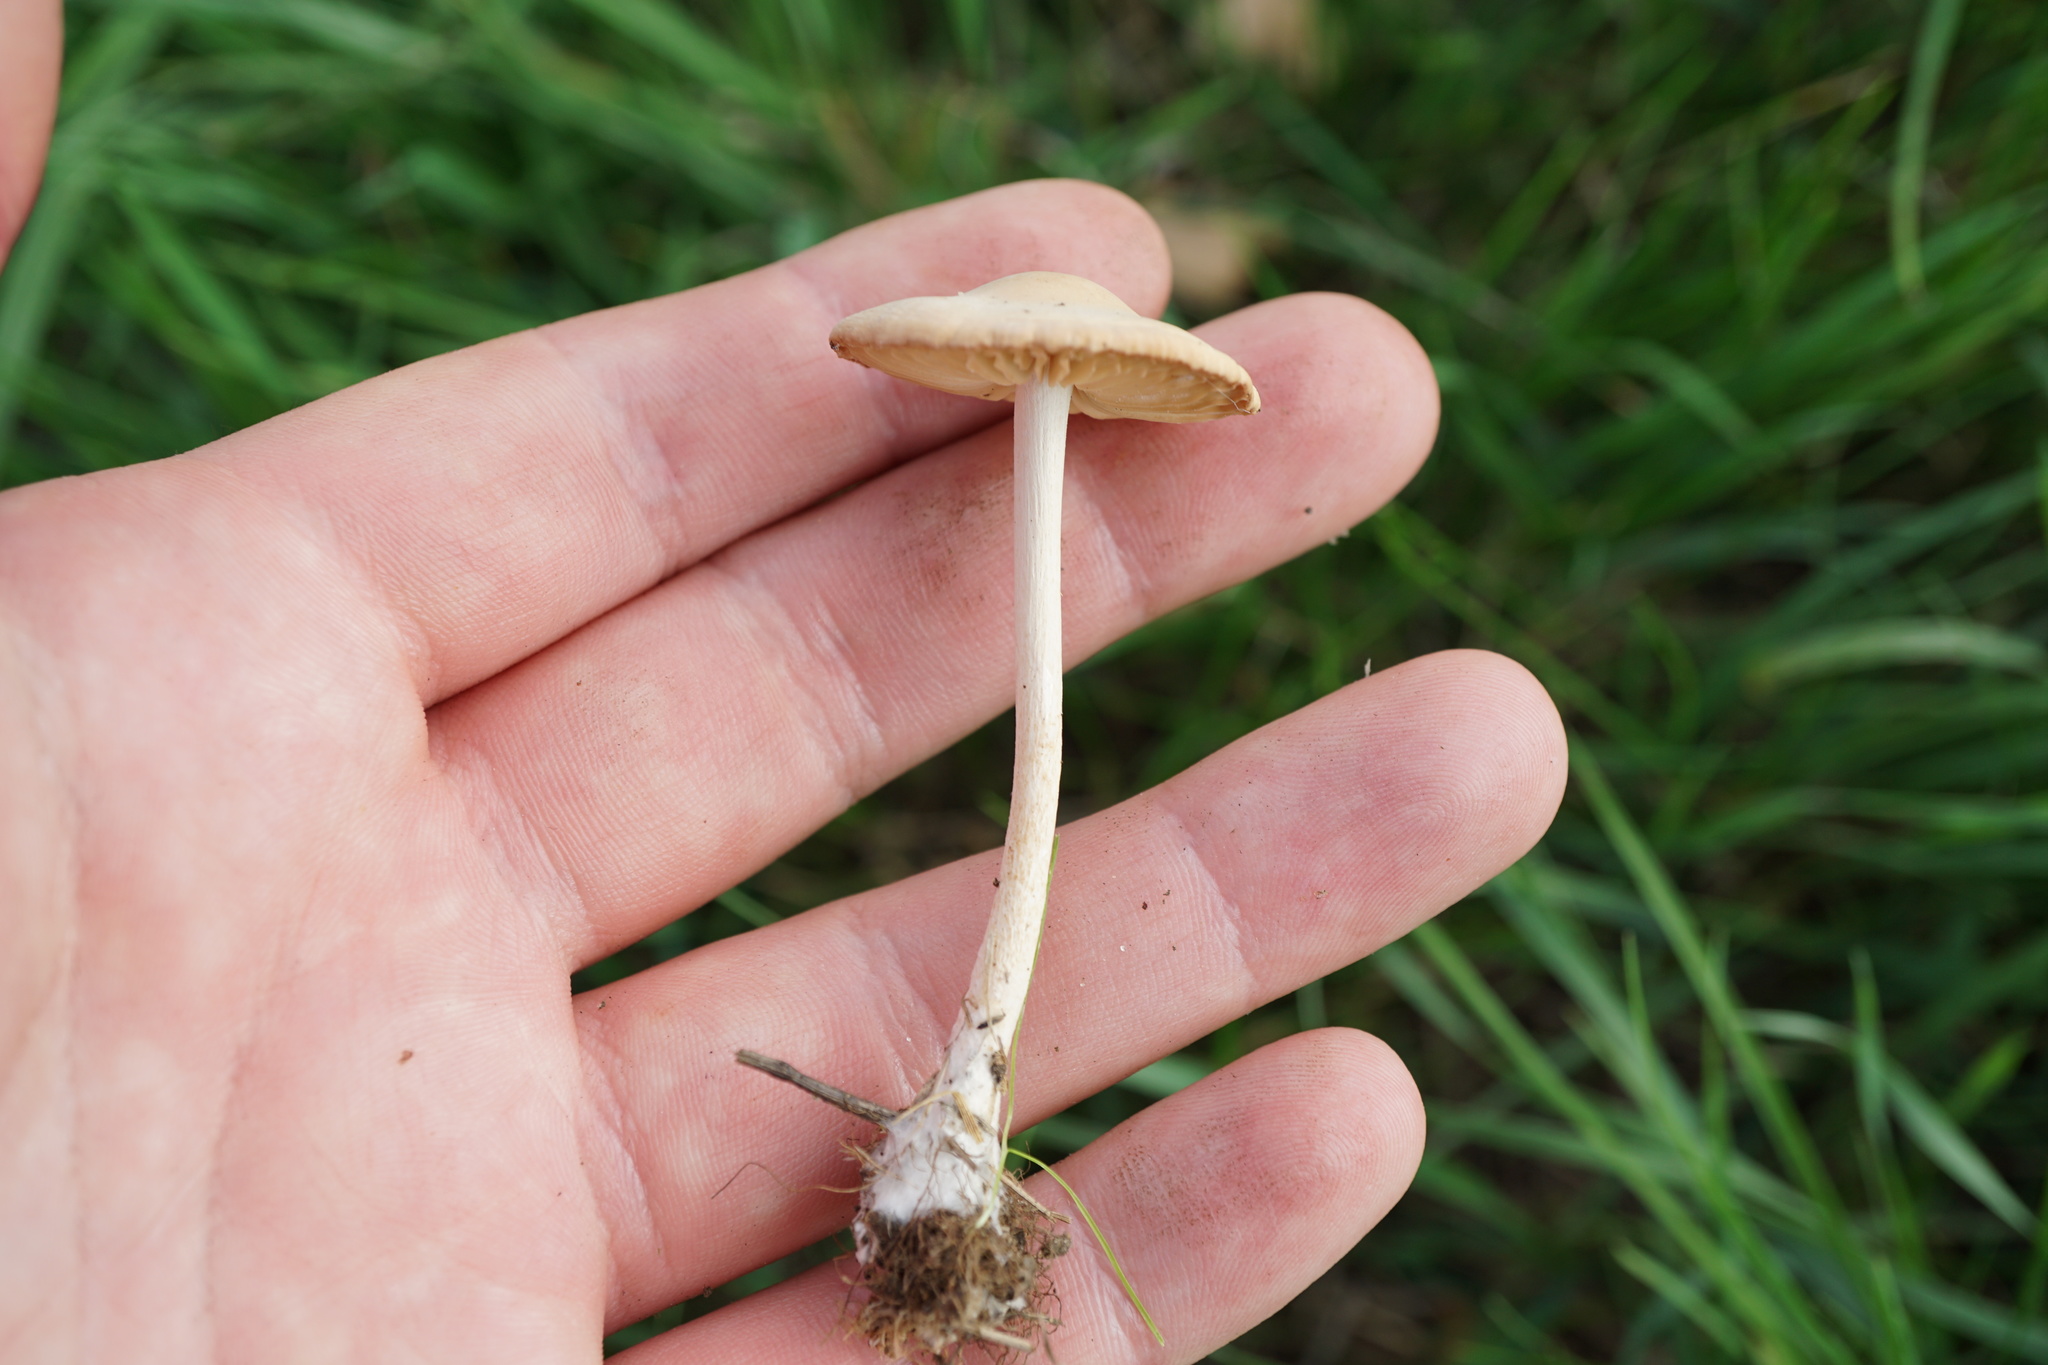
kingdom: Fungi
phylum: Basidiomycota
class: Agaricomycetes
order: Agaricales
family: Marasmiaceae
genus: Marasmius
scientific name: Marasmius oreades
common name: Fairy ring champignon
